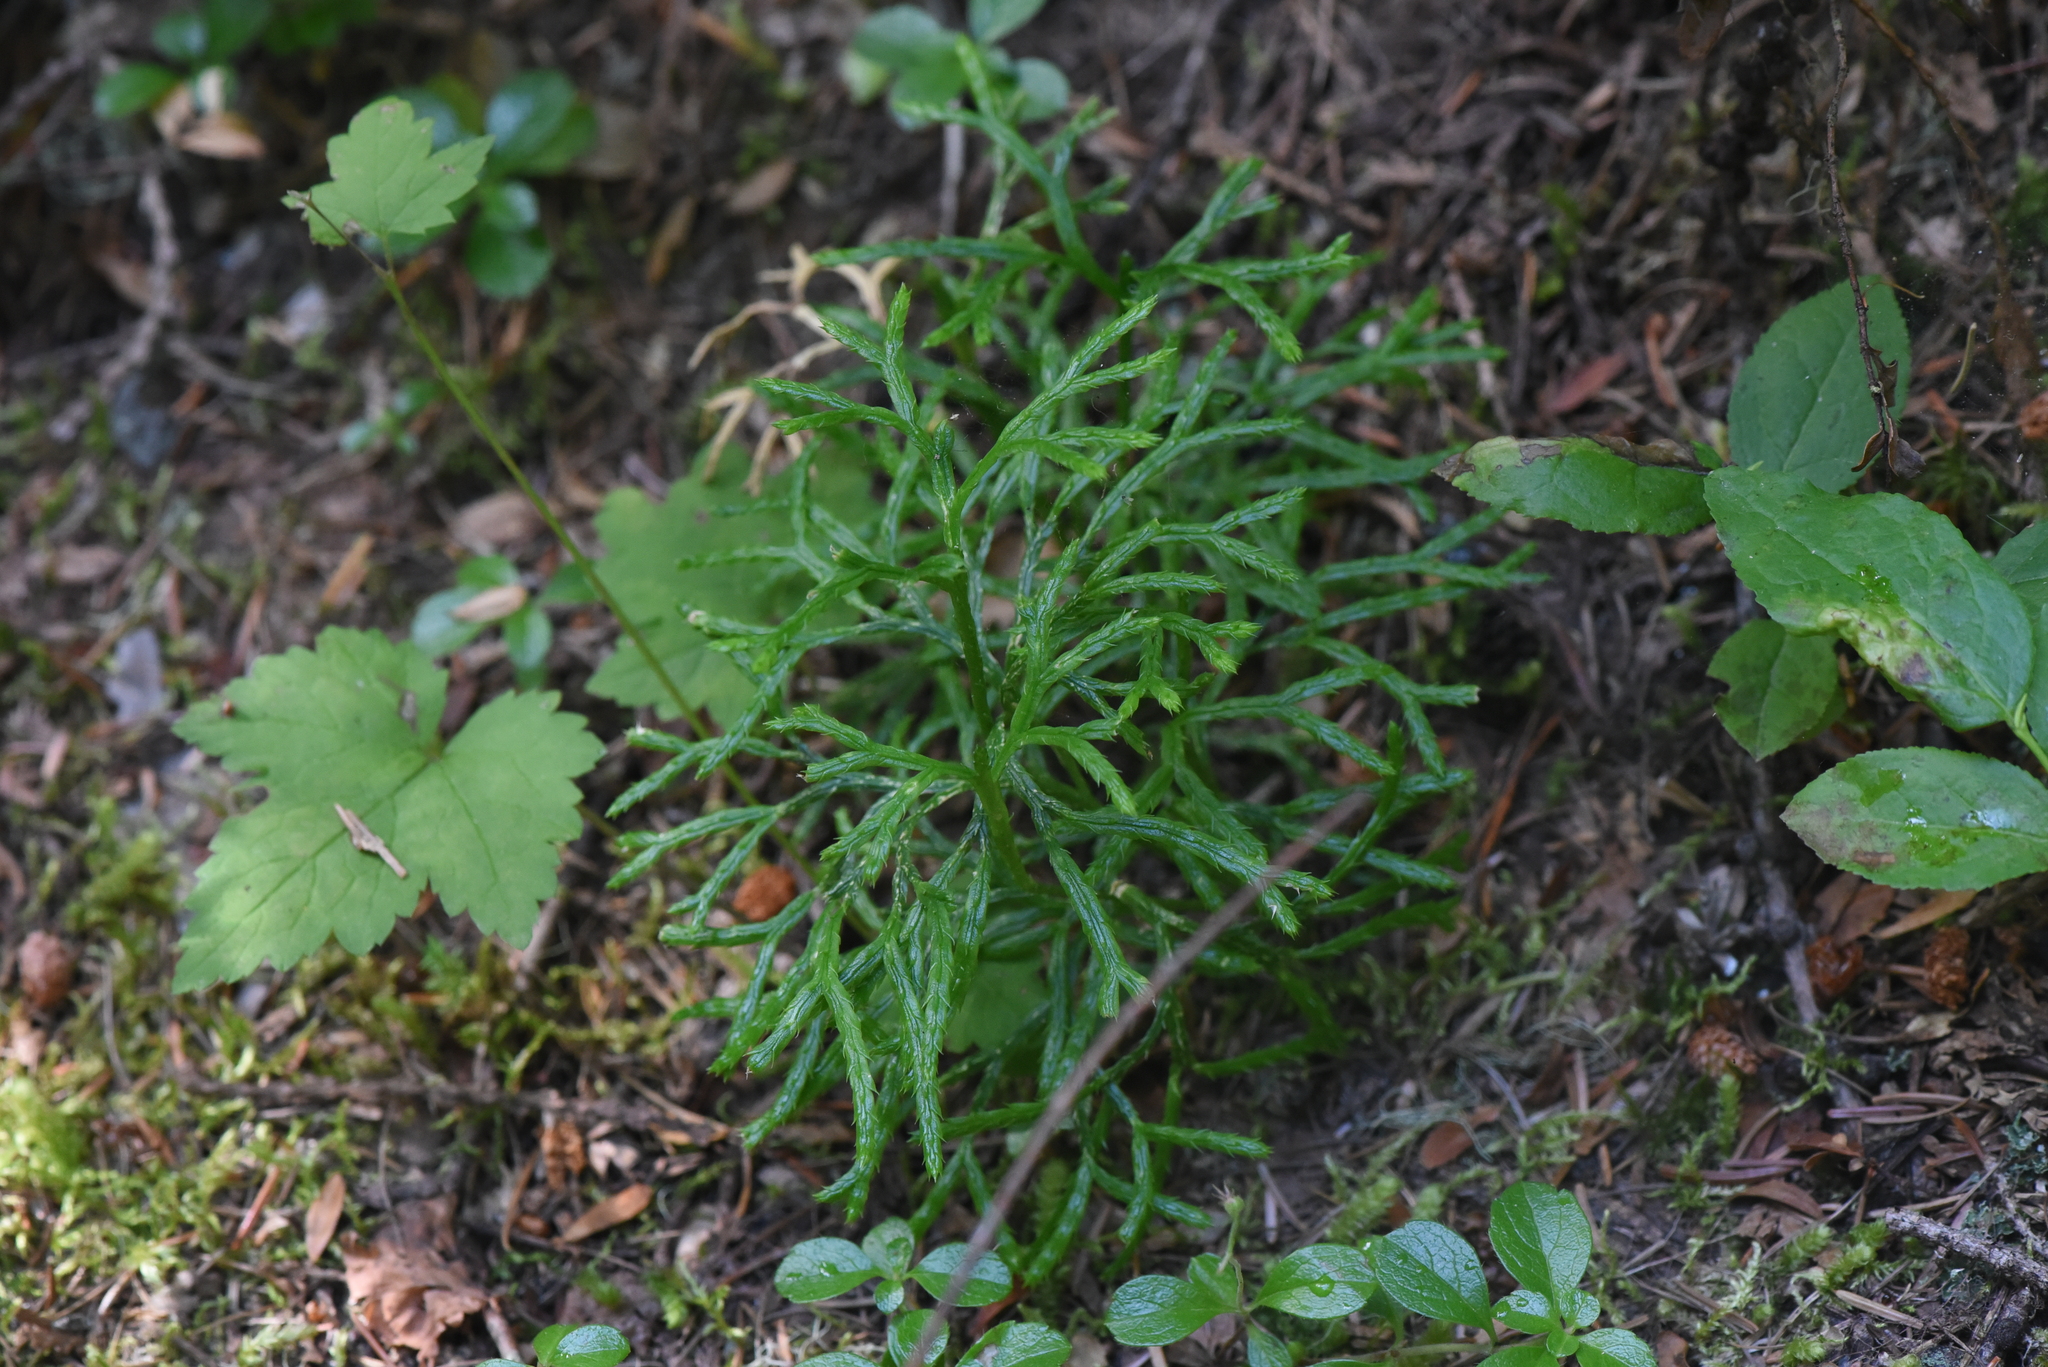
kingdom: Plantae
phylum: Tracheophyta
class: Lycopodiopsida
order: Lycopodiales
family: Lycopodiaceae
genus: Diphasiastrum
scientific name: Diphasiastrum complanatum
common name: Northern running-pine
